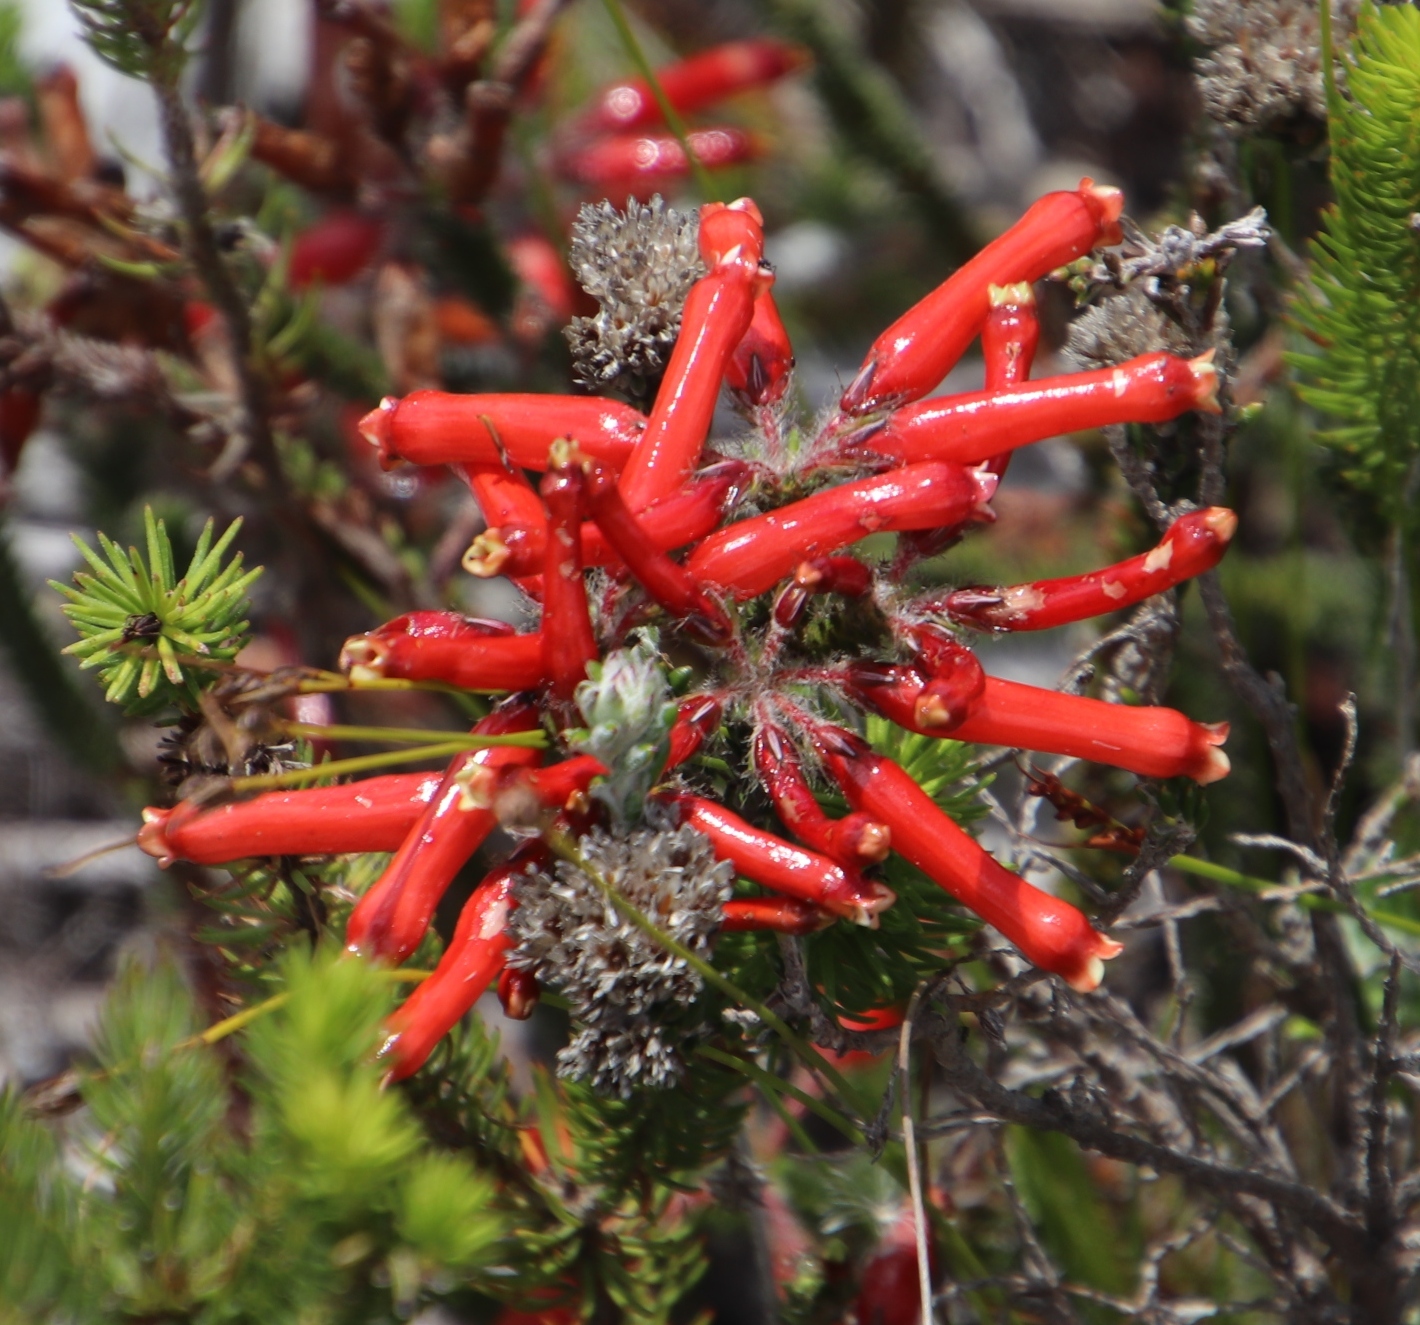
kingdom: Plantae
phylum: Tracheophyta
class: Magnoliopsida
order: Ericales
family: Ericaceae
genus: Erica
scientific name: Erica massonii
